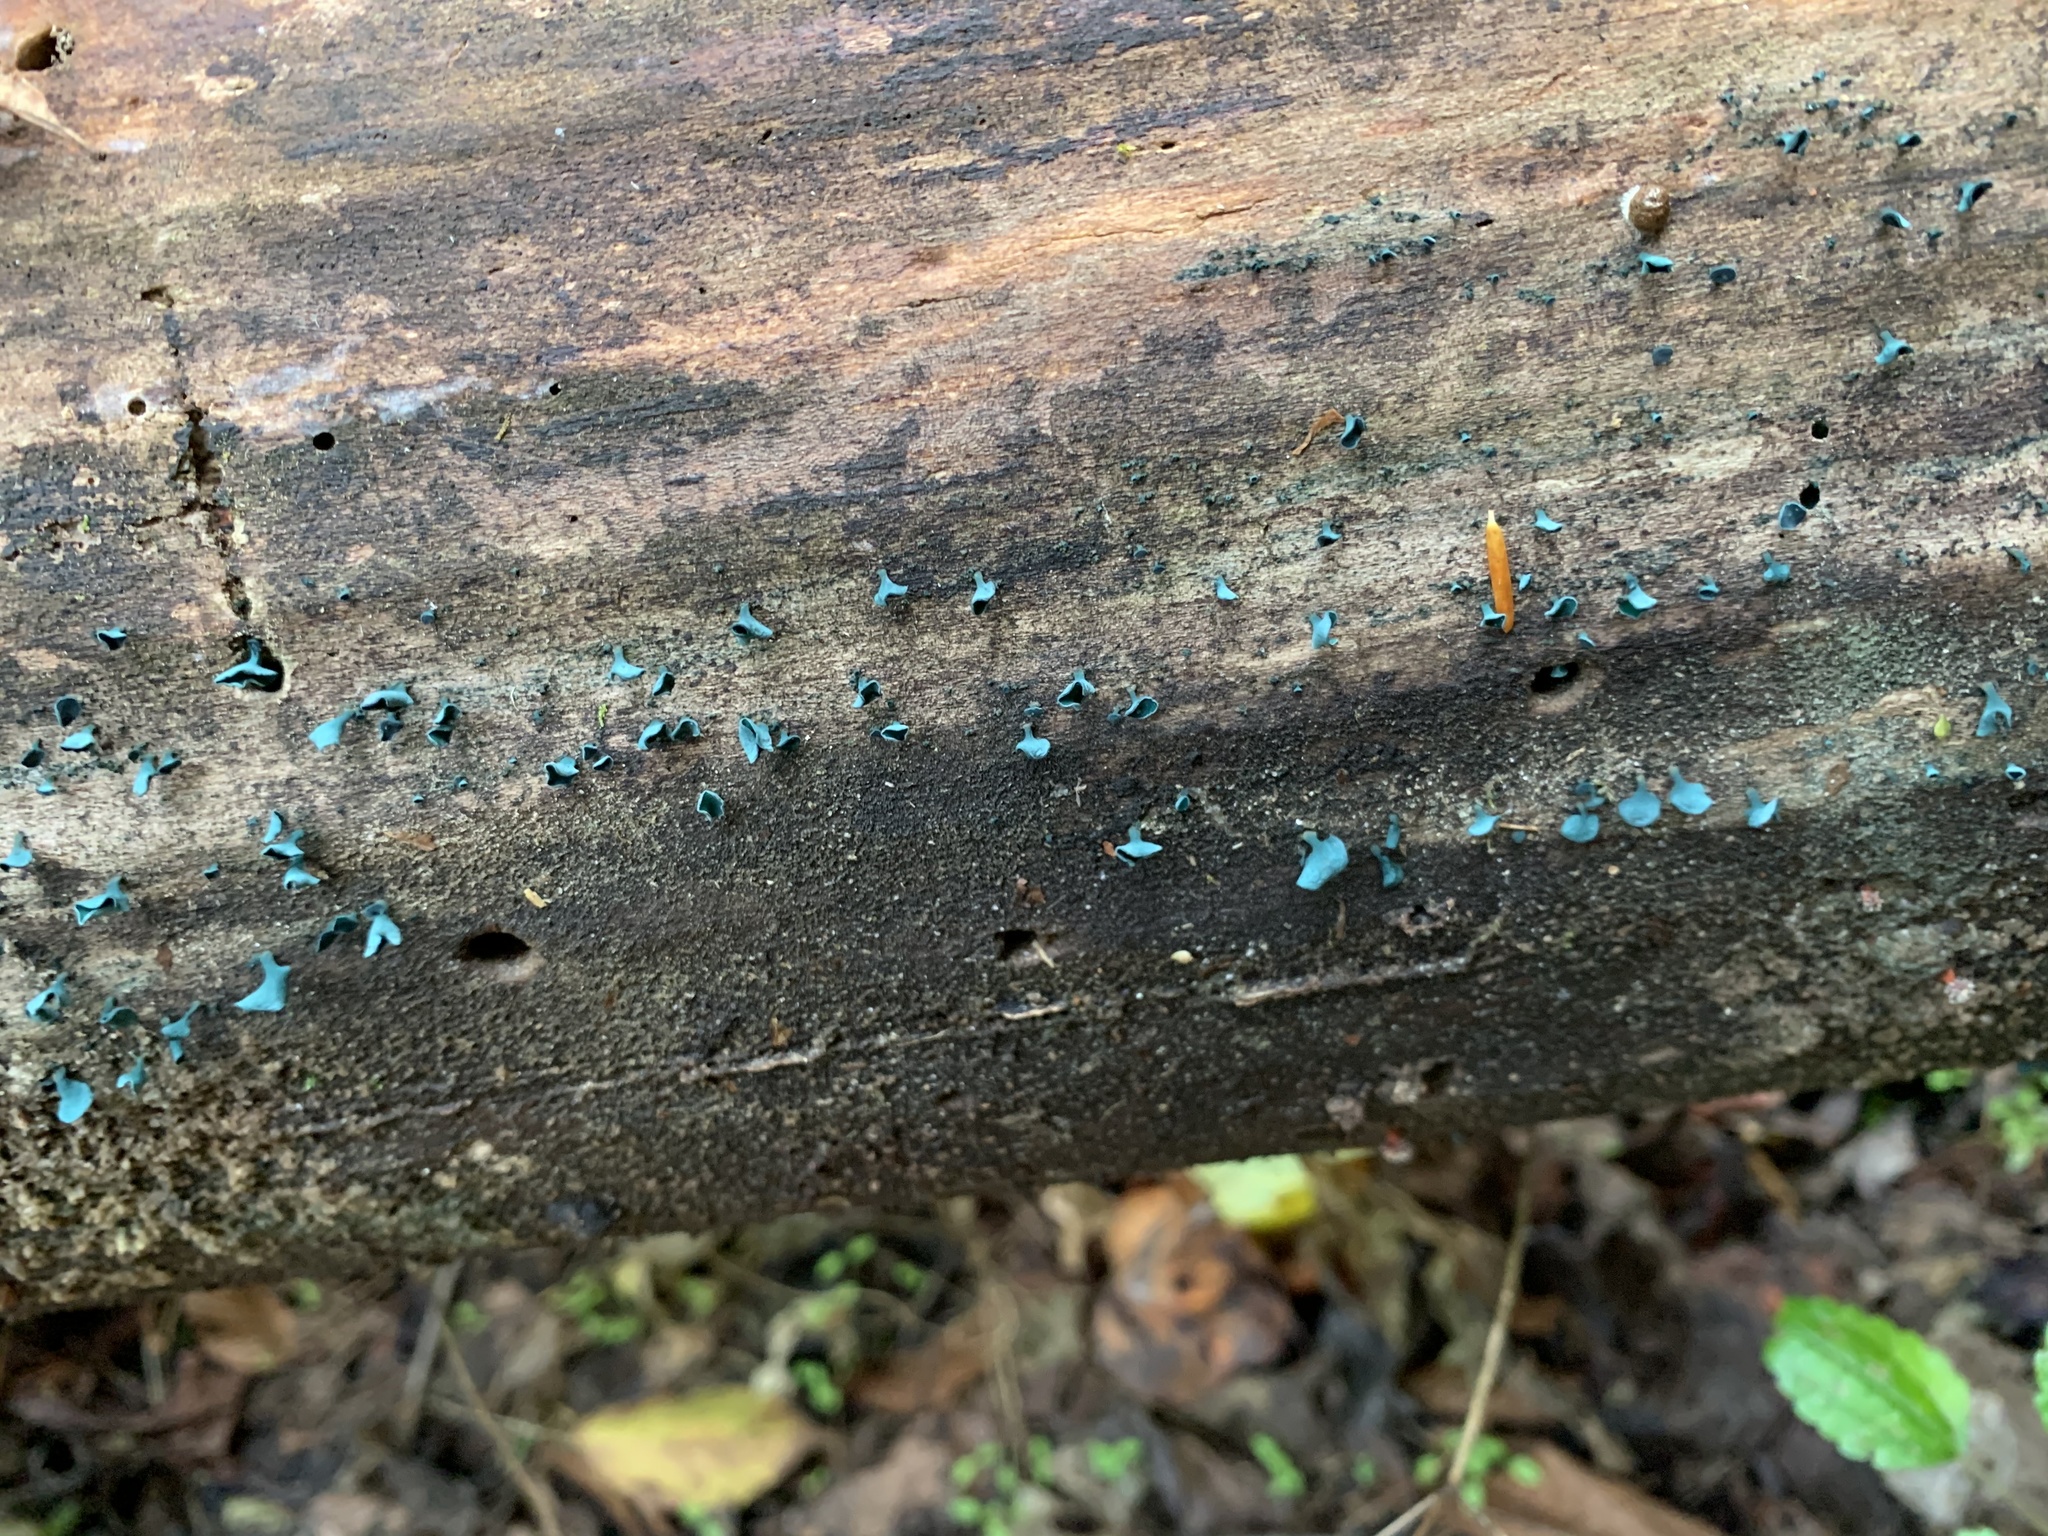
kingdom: Fungi
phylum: Ascomycota
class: Leotiomycetes
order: Helotiales
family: Chlorociboriaceae
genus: Chlorociboria
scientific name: Chlorociboria aeruginascens
